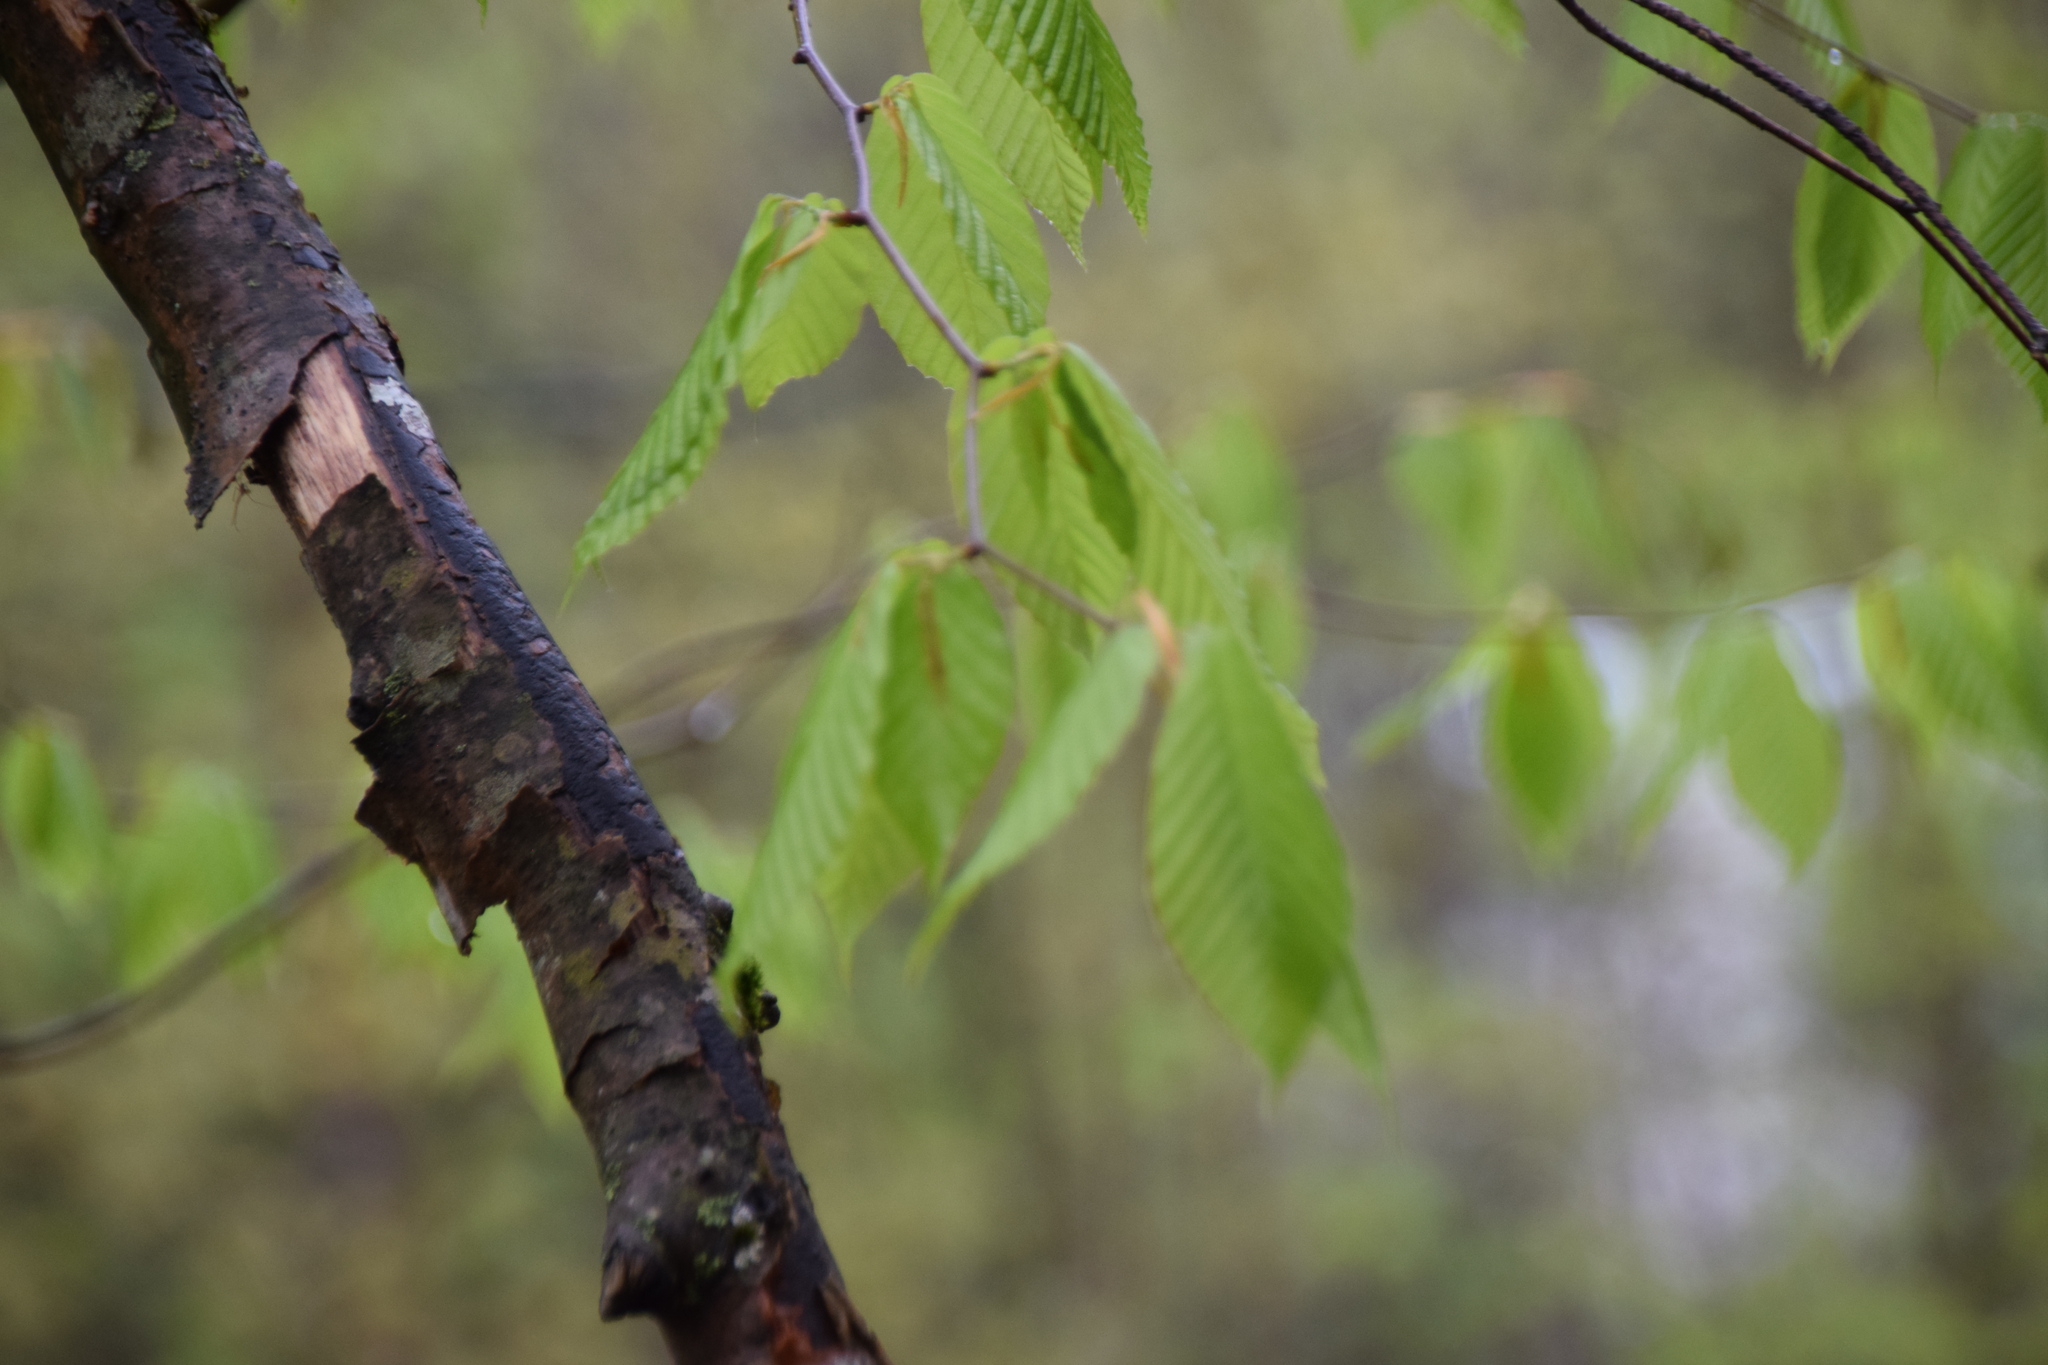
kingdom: Plantae
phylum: Tracheophyta
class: Magnoliopsida
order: Fagales
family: Fagaceae
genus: Fagus
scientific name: Fagus grandifolia
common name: American beech
